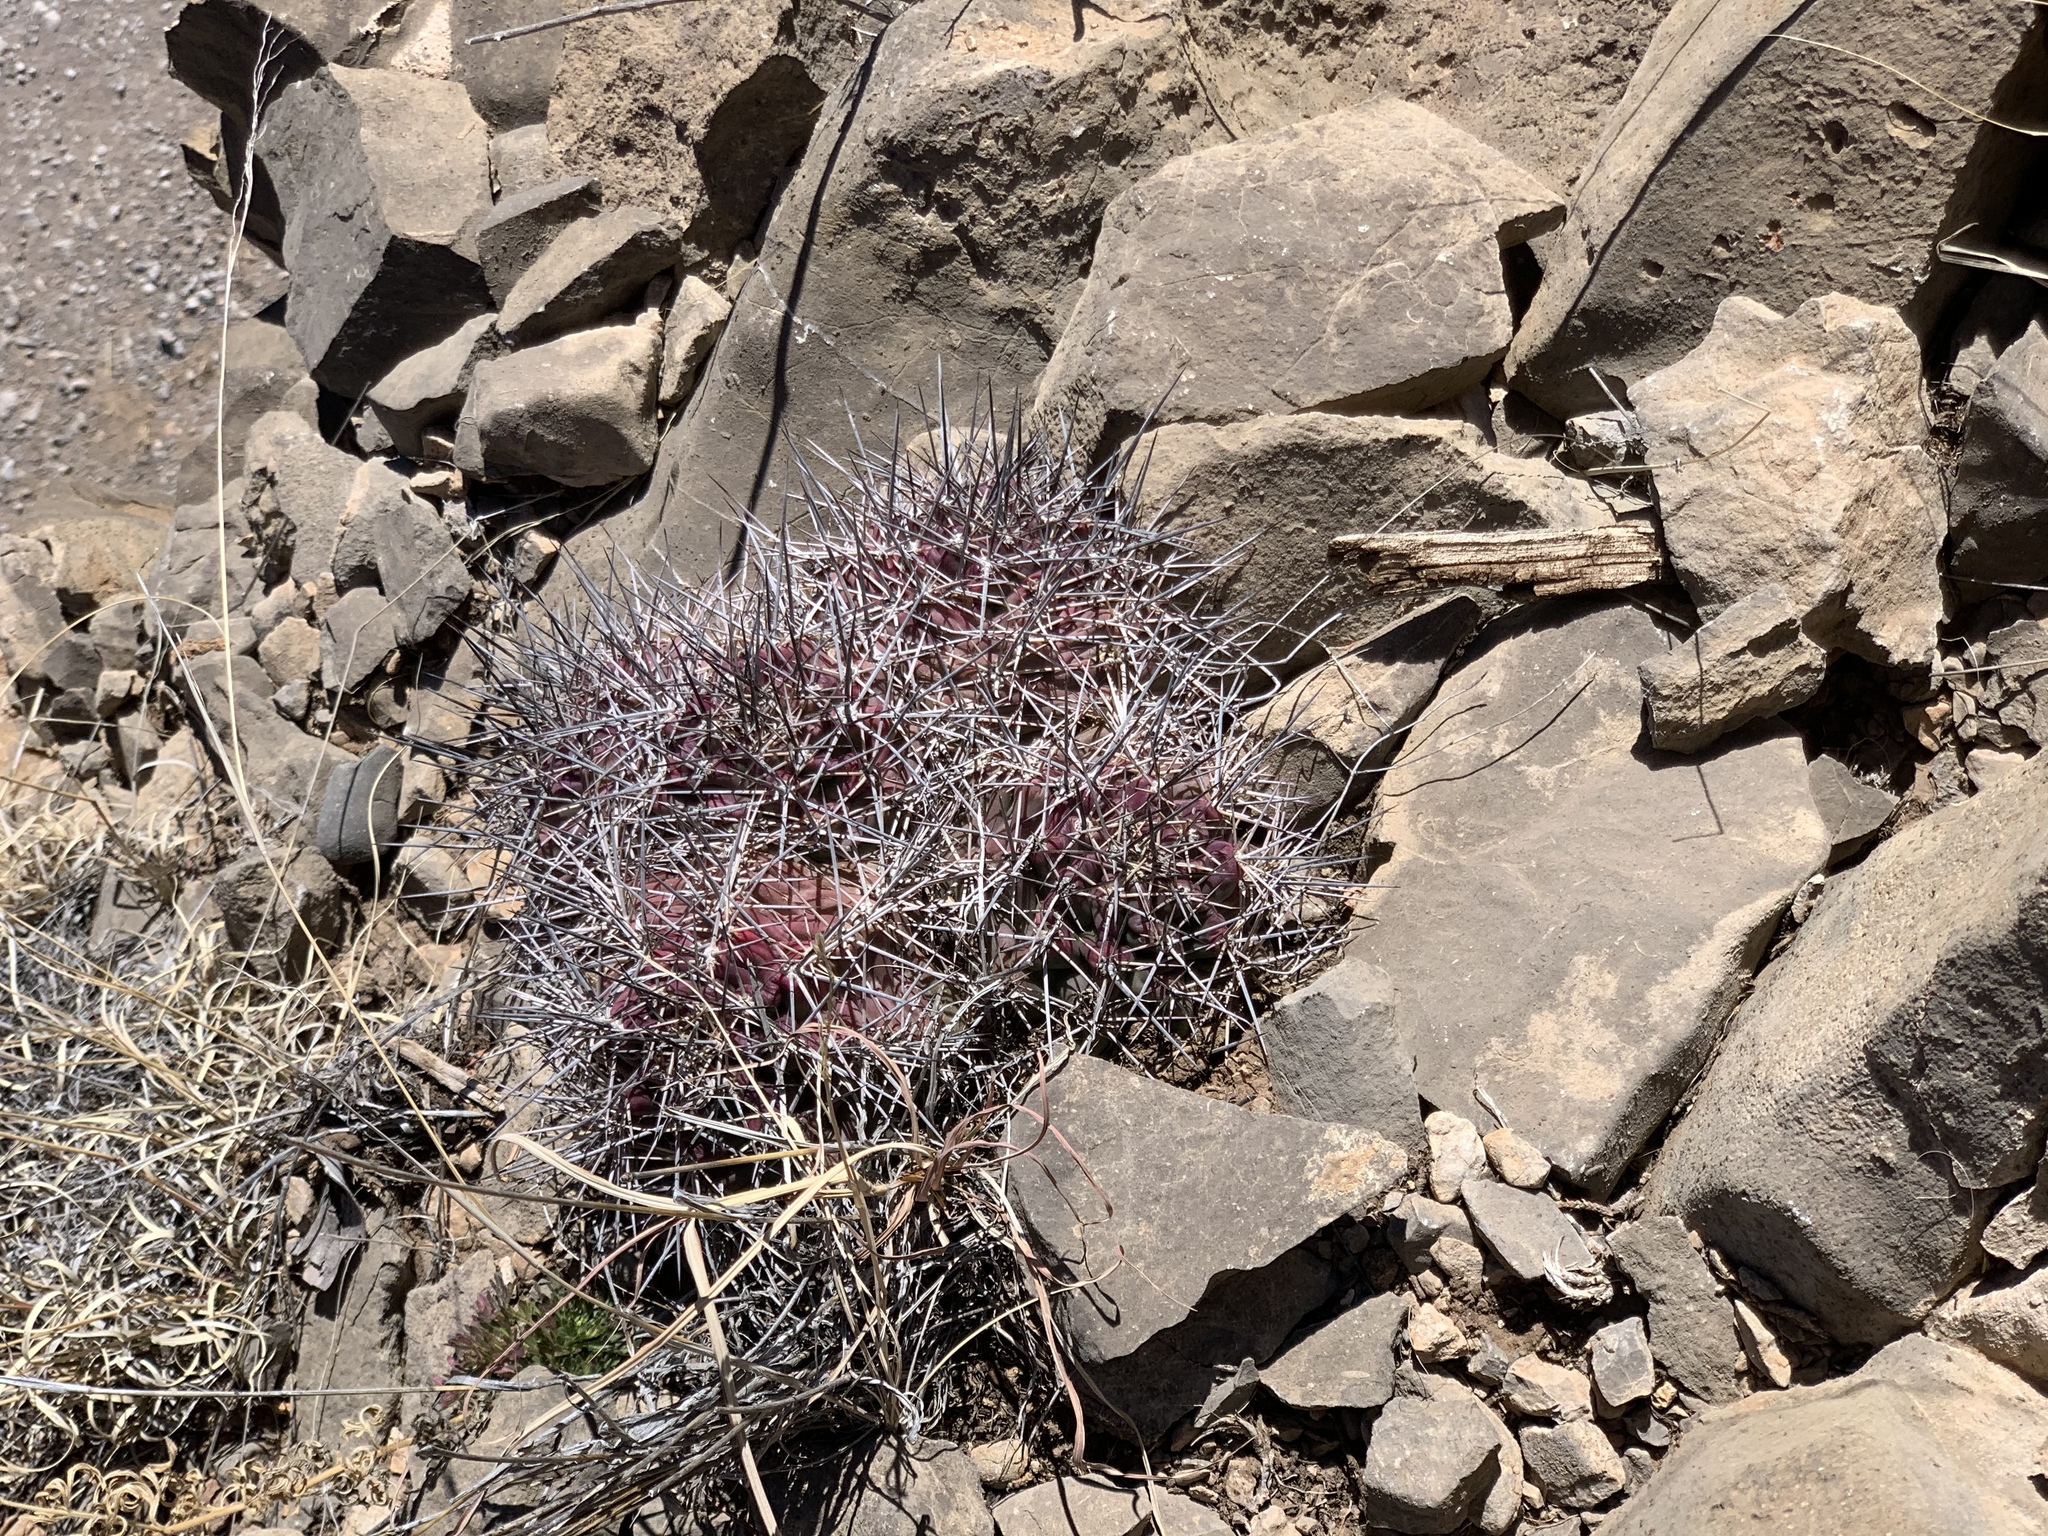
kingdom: Plantae
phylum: Tracheophyta
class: Magnoliopsida
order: Caryophyllales
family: Cactaceae
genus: Echinocereus
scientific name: Echinocereus coccineus
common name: Scarlet hedgehog cactus
